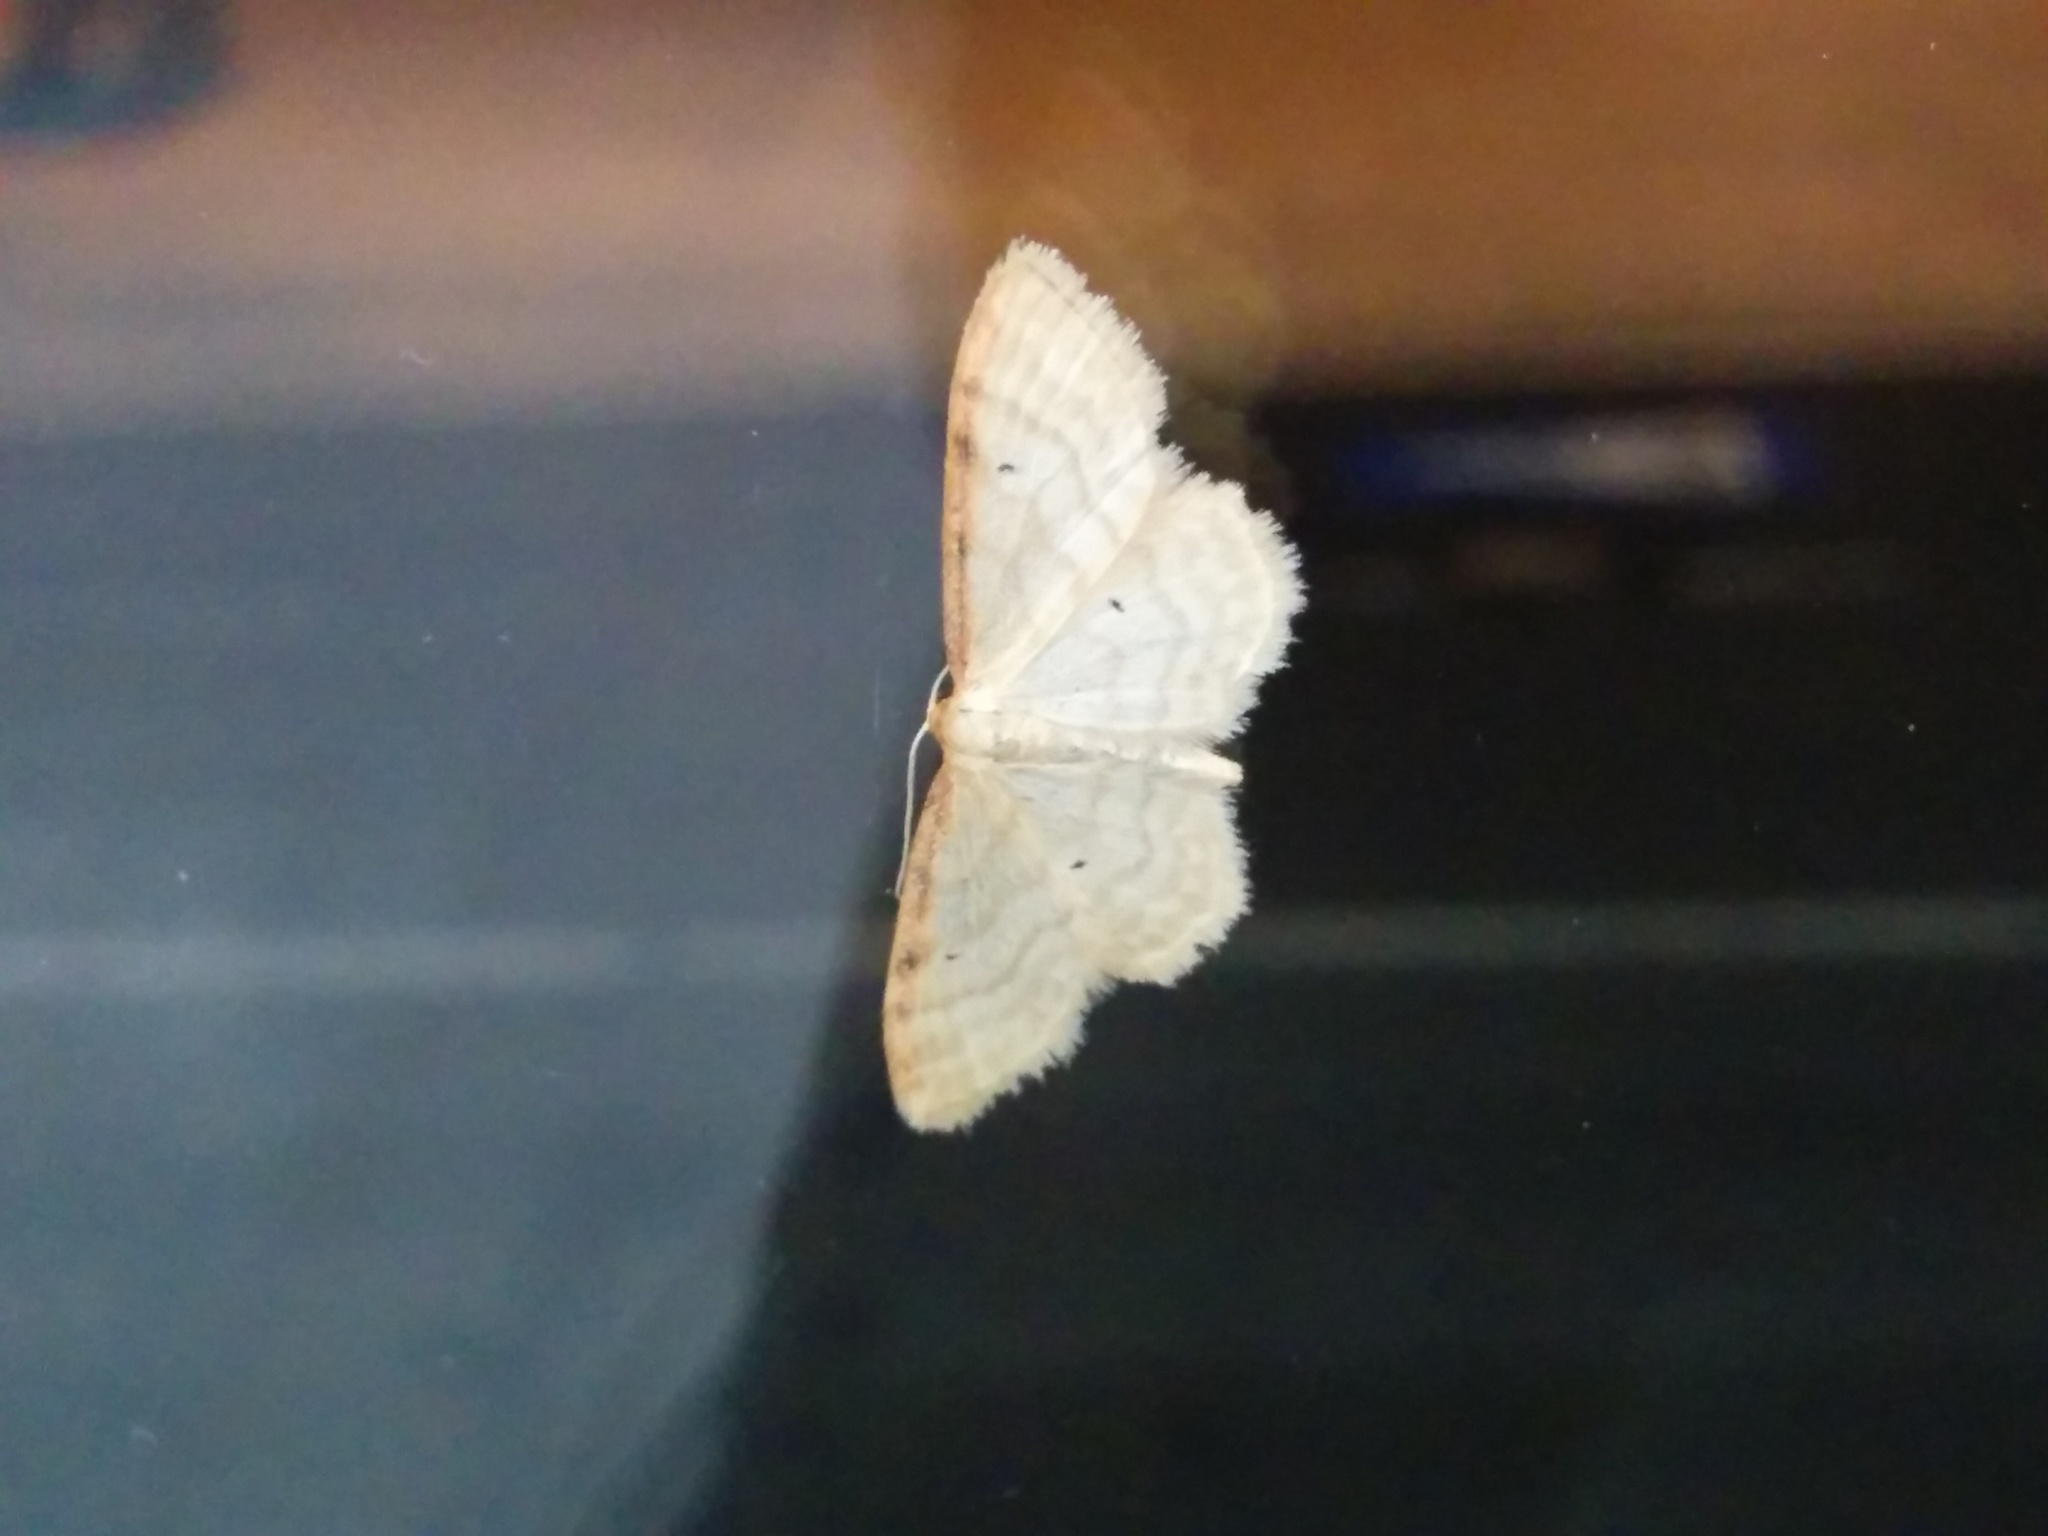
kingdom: Animalia
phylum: Arthropoda
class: Insecta
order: Lepidoptera
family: Geometridae
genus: Idaea
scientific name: Idaea humiliata
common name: Isle of wight wave
